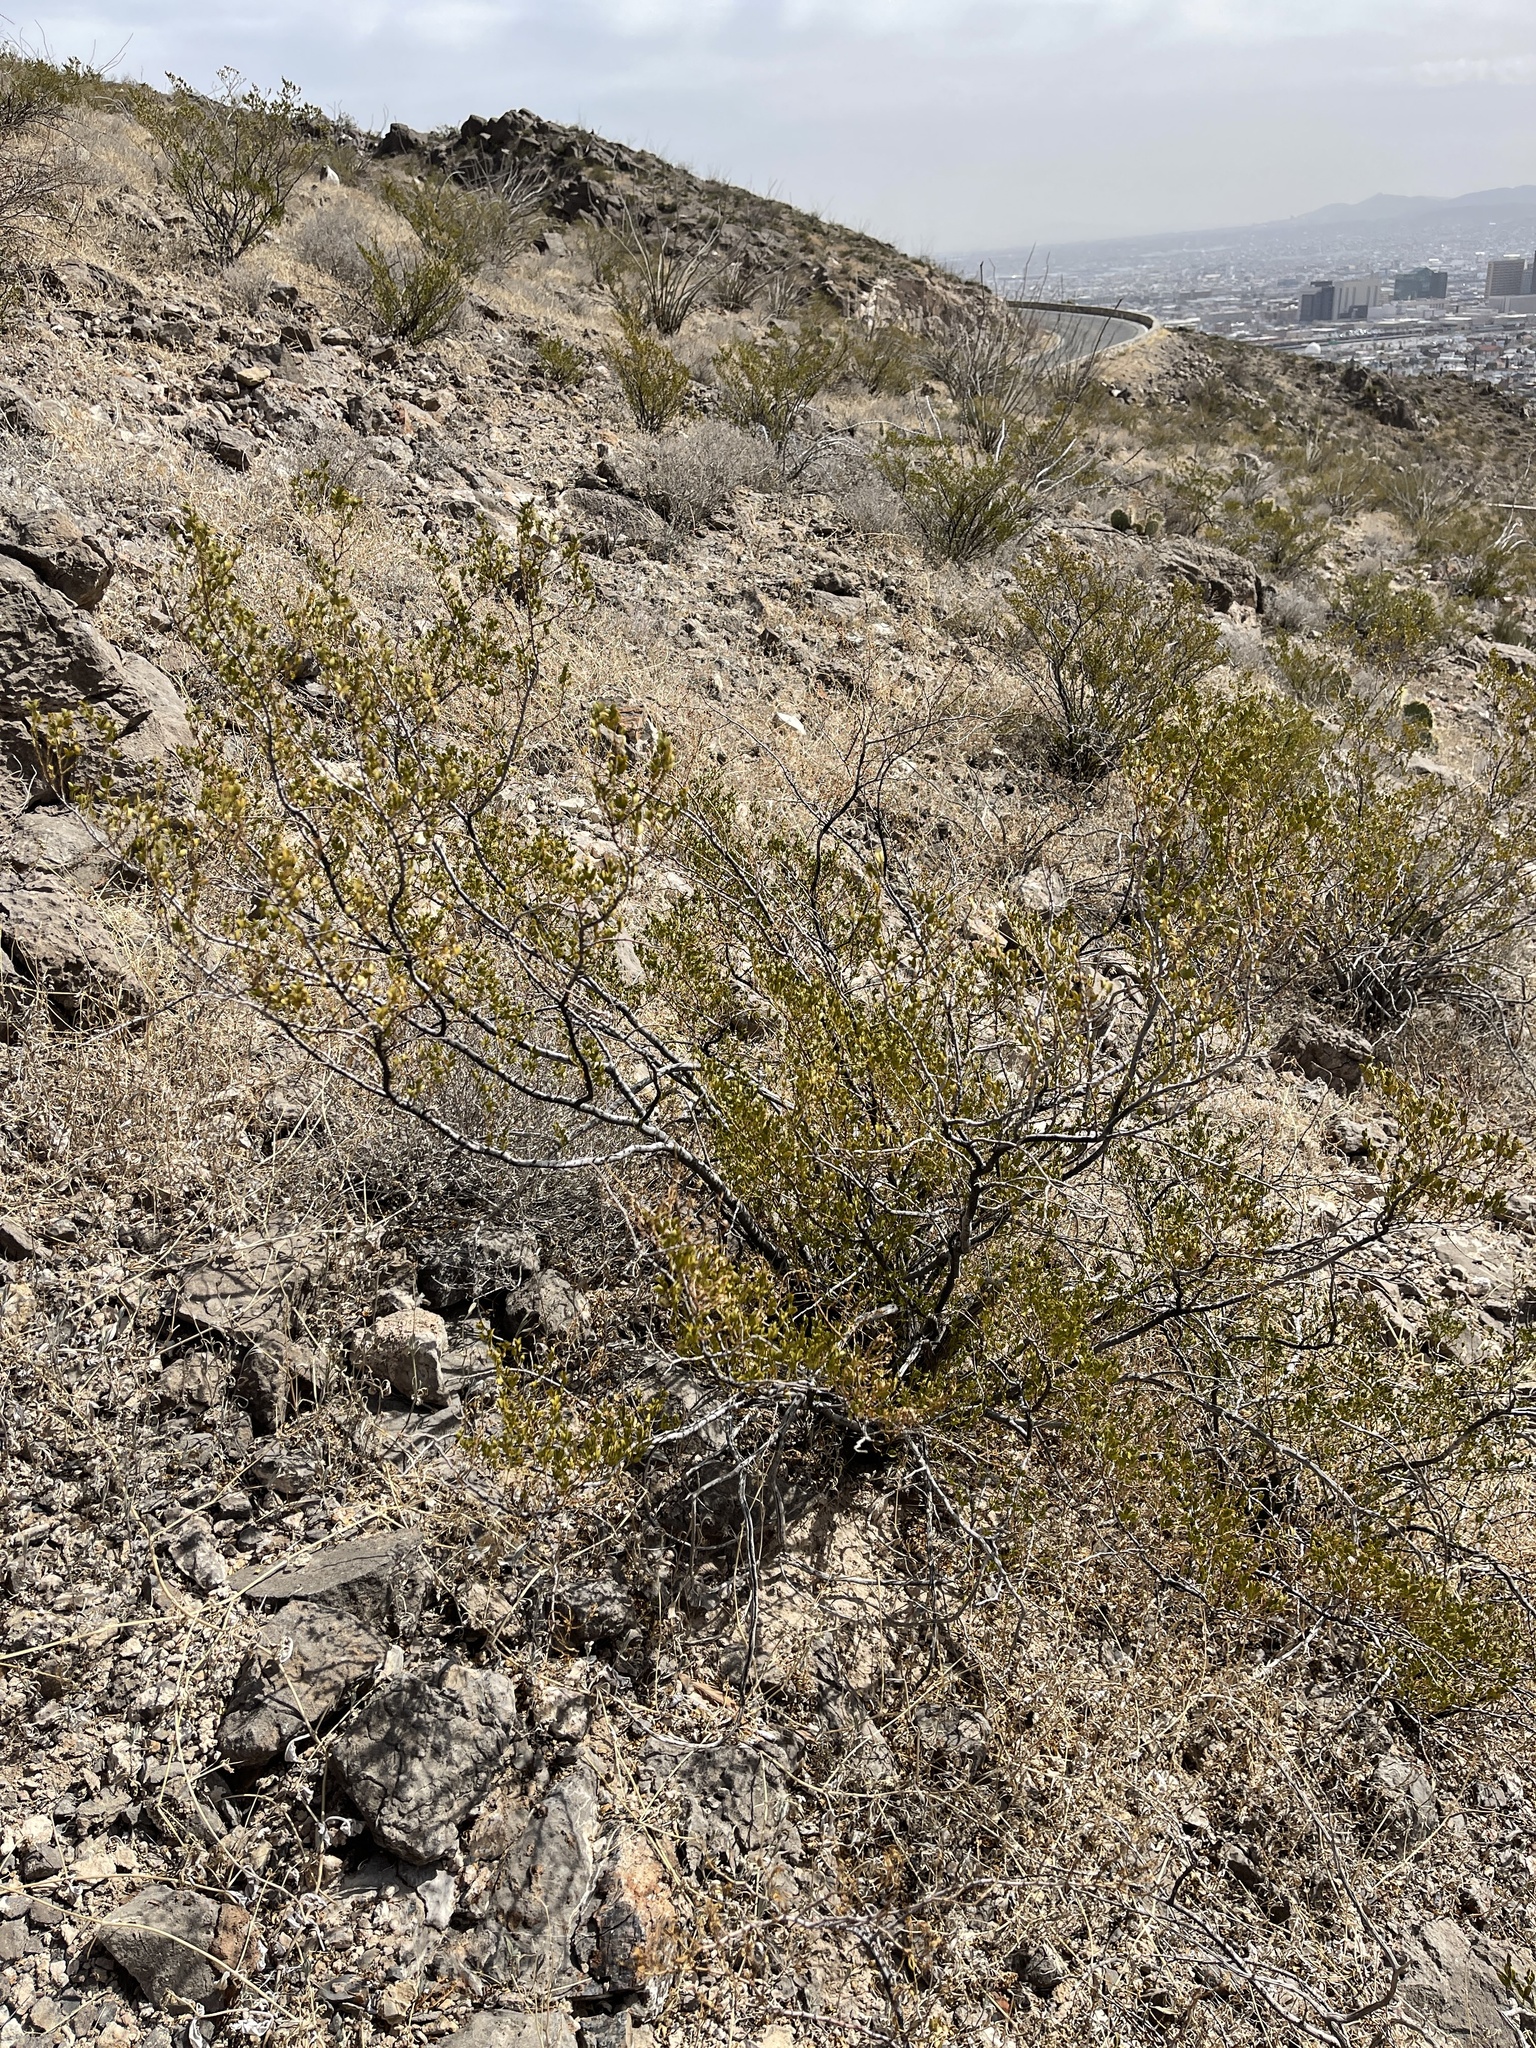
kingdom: Plantae
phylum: Tracheophyta
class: Magnoliopsida
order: Zygophyllales
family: Zygophyllaceae
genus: Larrea
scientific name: Larrea tridentata
